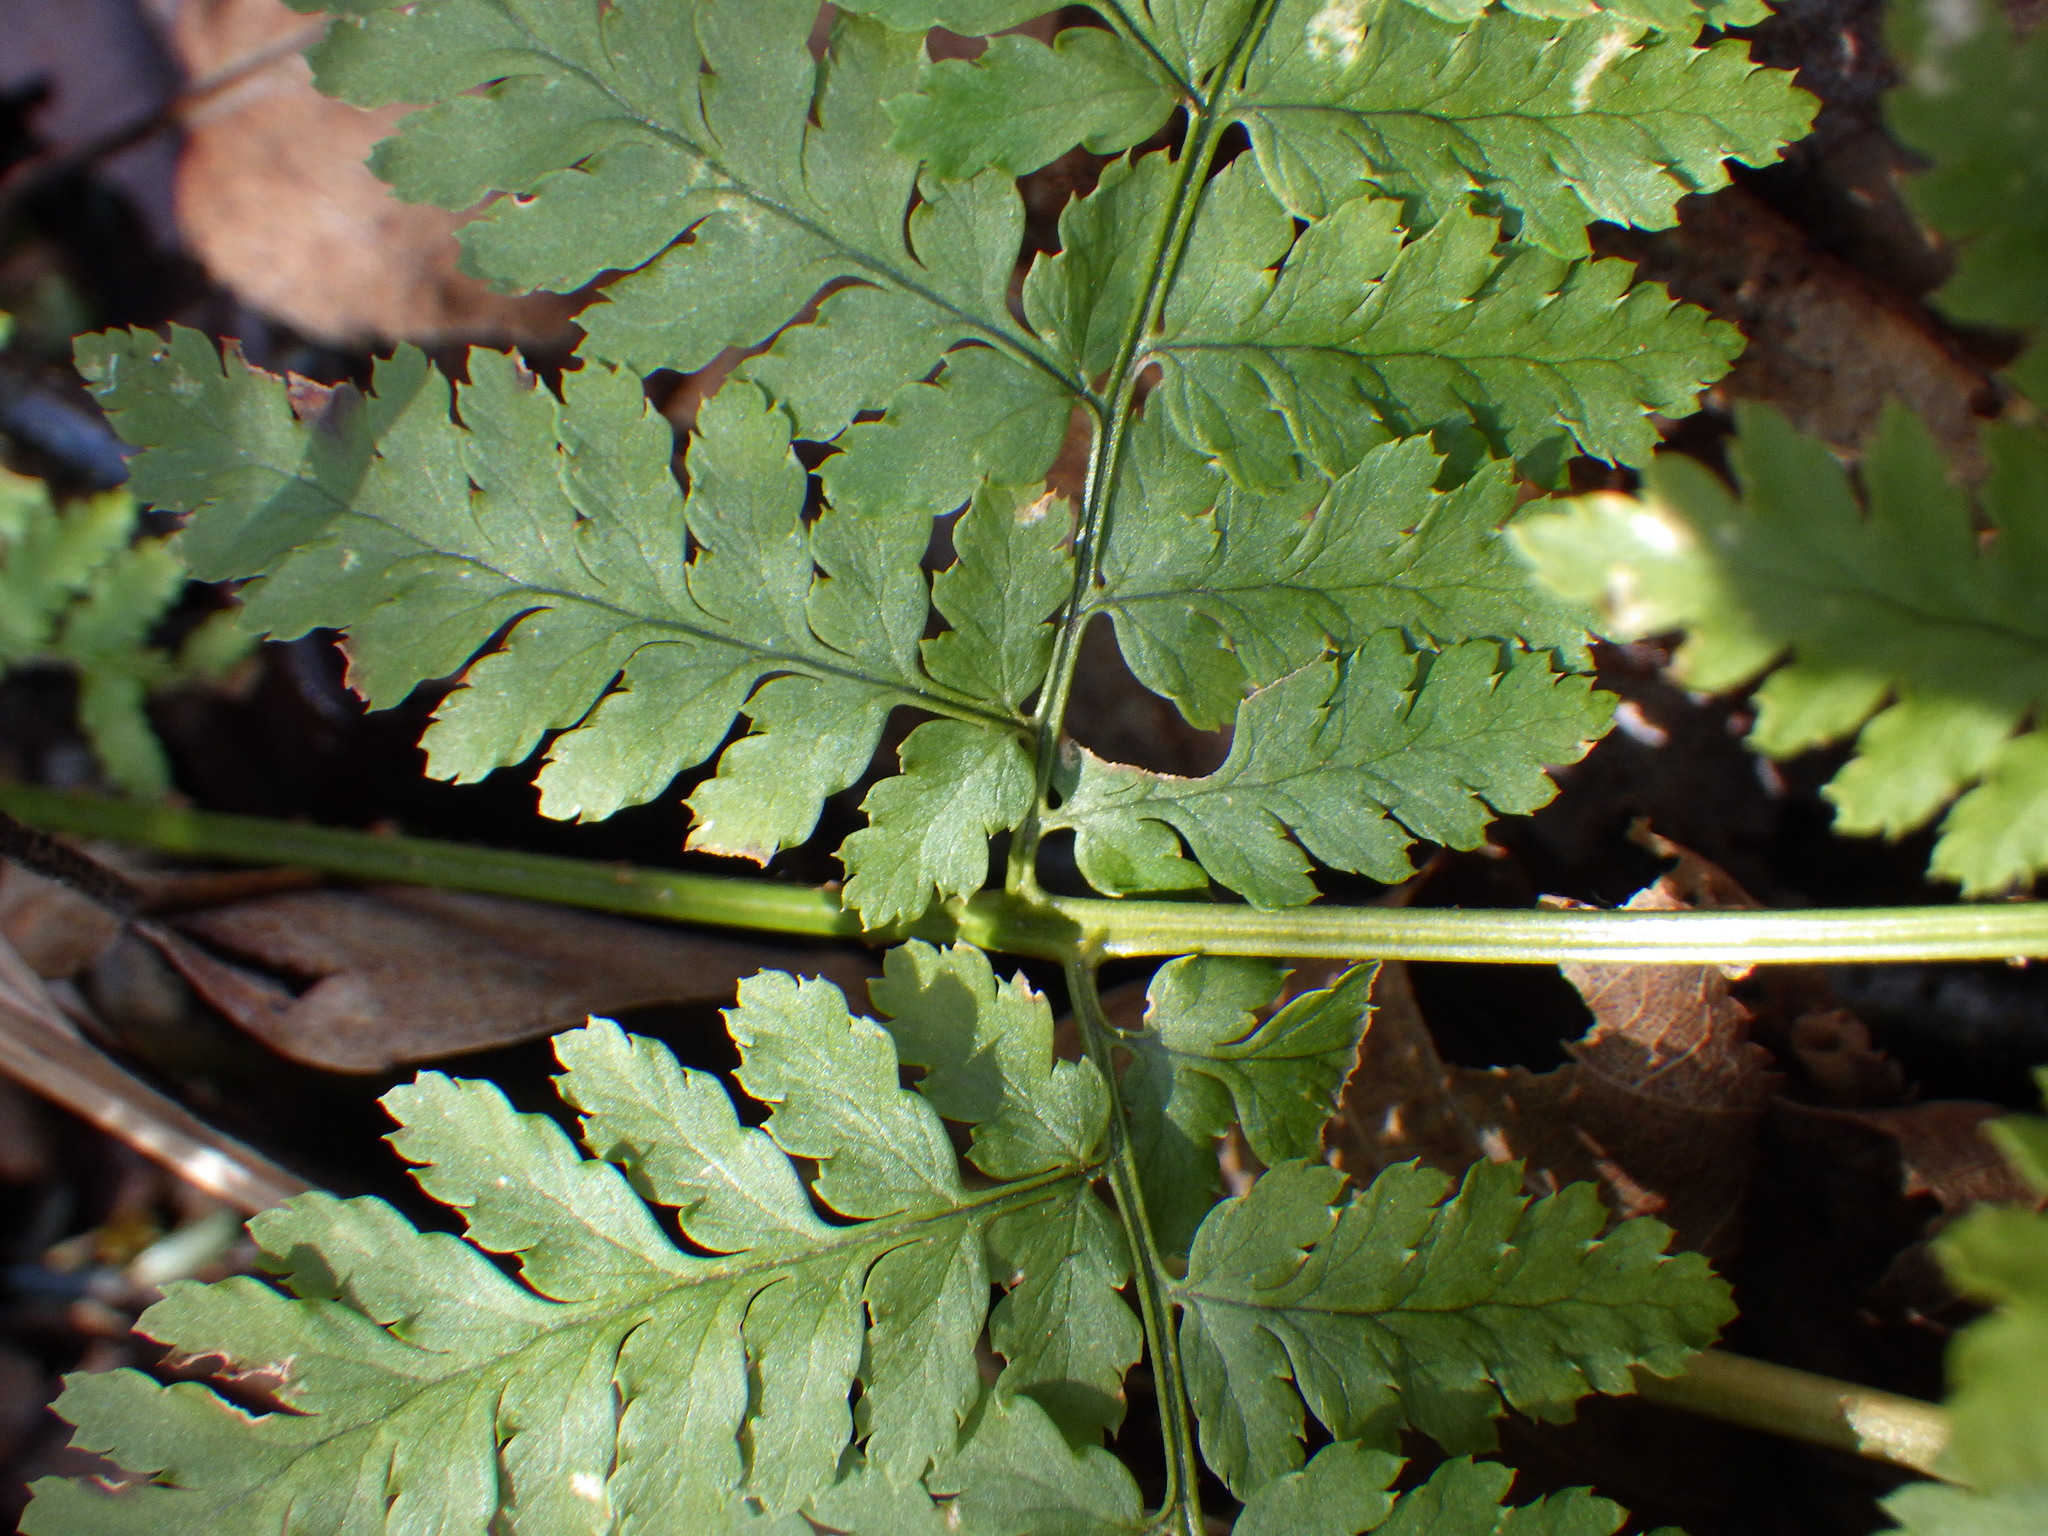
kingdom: Plantae
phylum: Tracheophyta
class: Polypodiopsida
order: Polypodiales
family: Dryopteridaceae
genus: Dryopteris
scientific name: Dryopteris intermedia
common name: Evergreen wood fern
